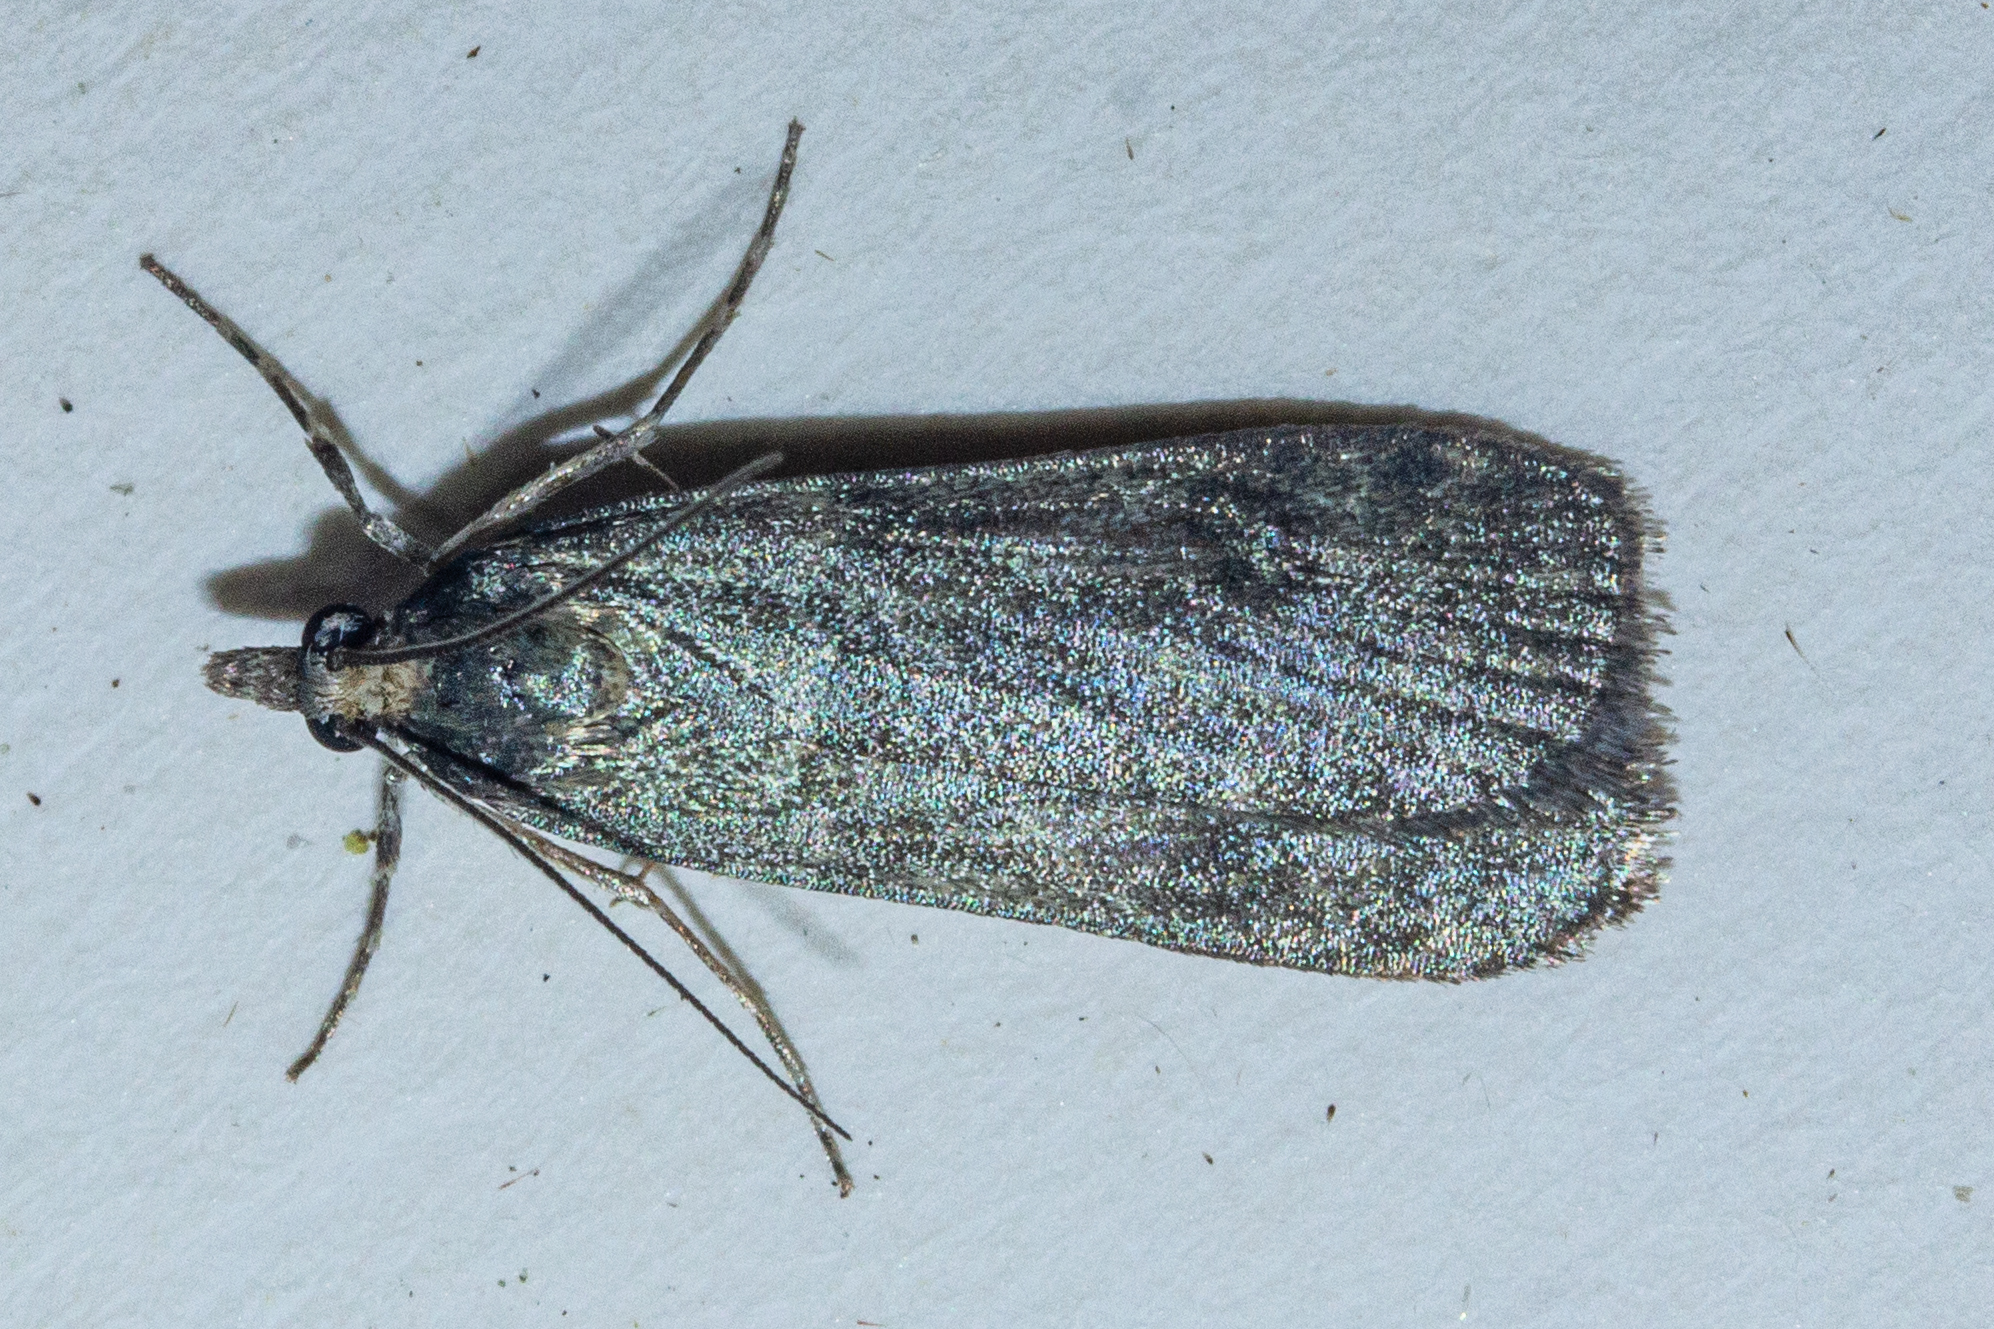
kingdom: Animalia
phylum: Arthropoda
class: Insecta
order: Lepidoptera
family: Crambidae
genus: Eudonia
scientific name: Eudonia cataxesta
